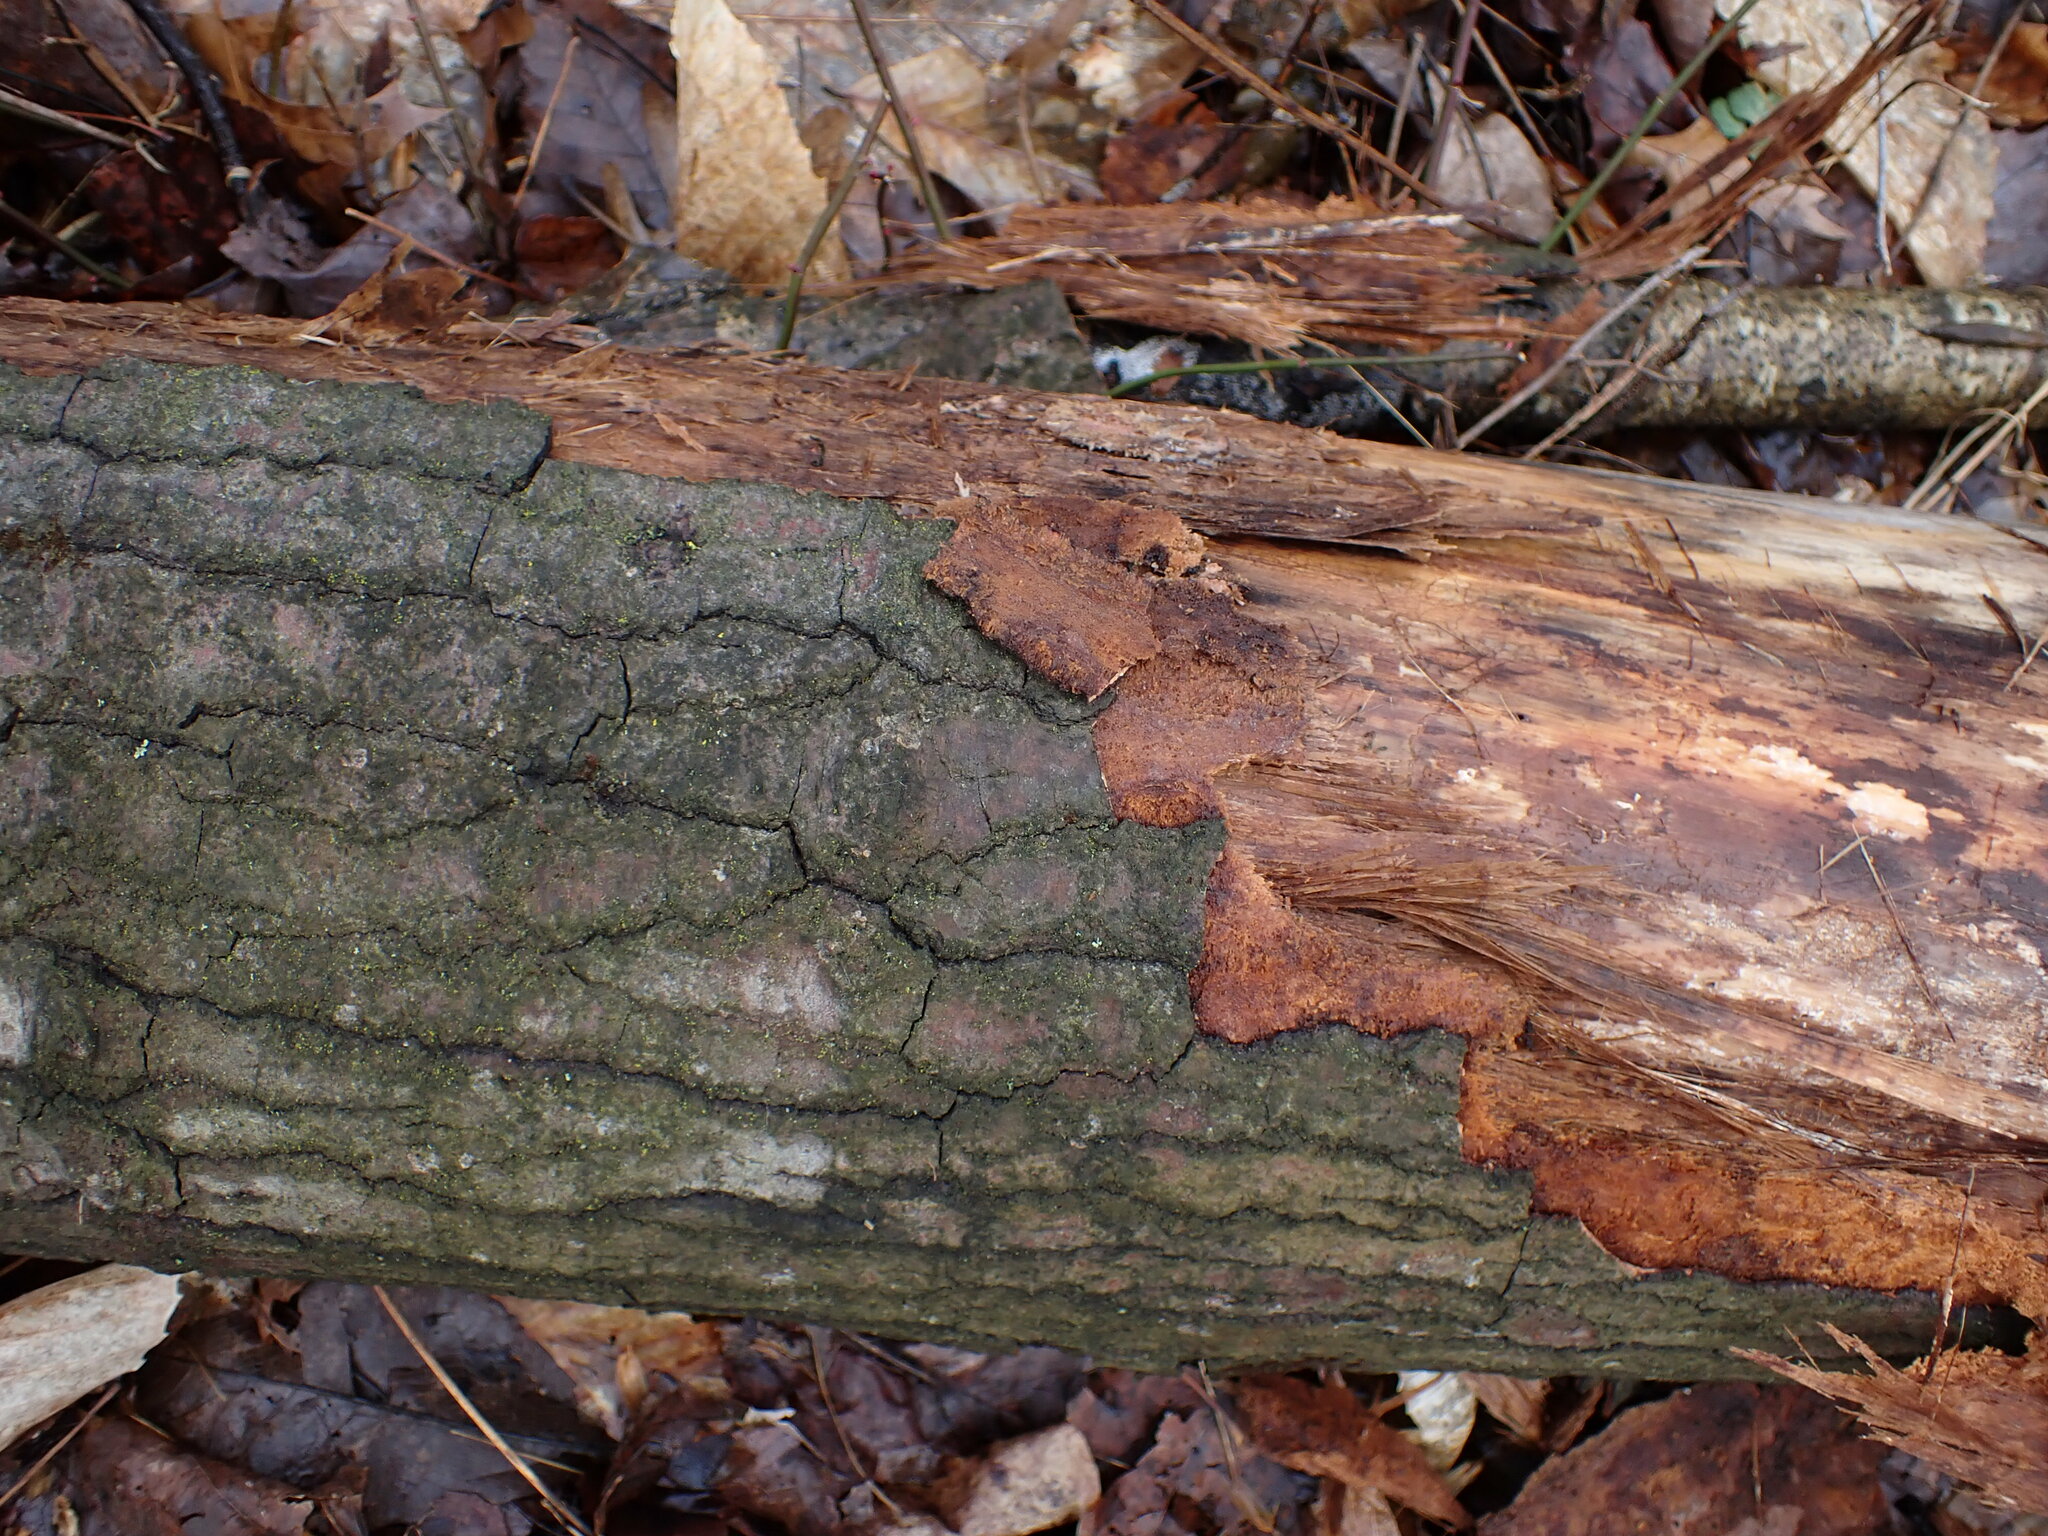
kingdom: Plantae
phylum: Tracheophyta
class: Pinopsida
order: Pinales
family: Pinaceae
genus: Pinus
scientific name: Pinus
